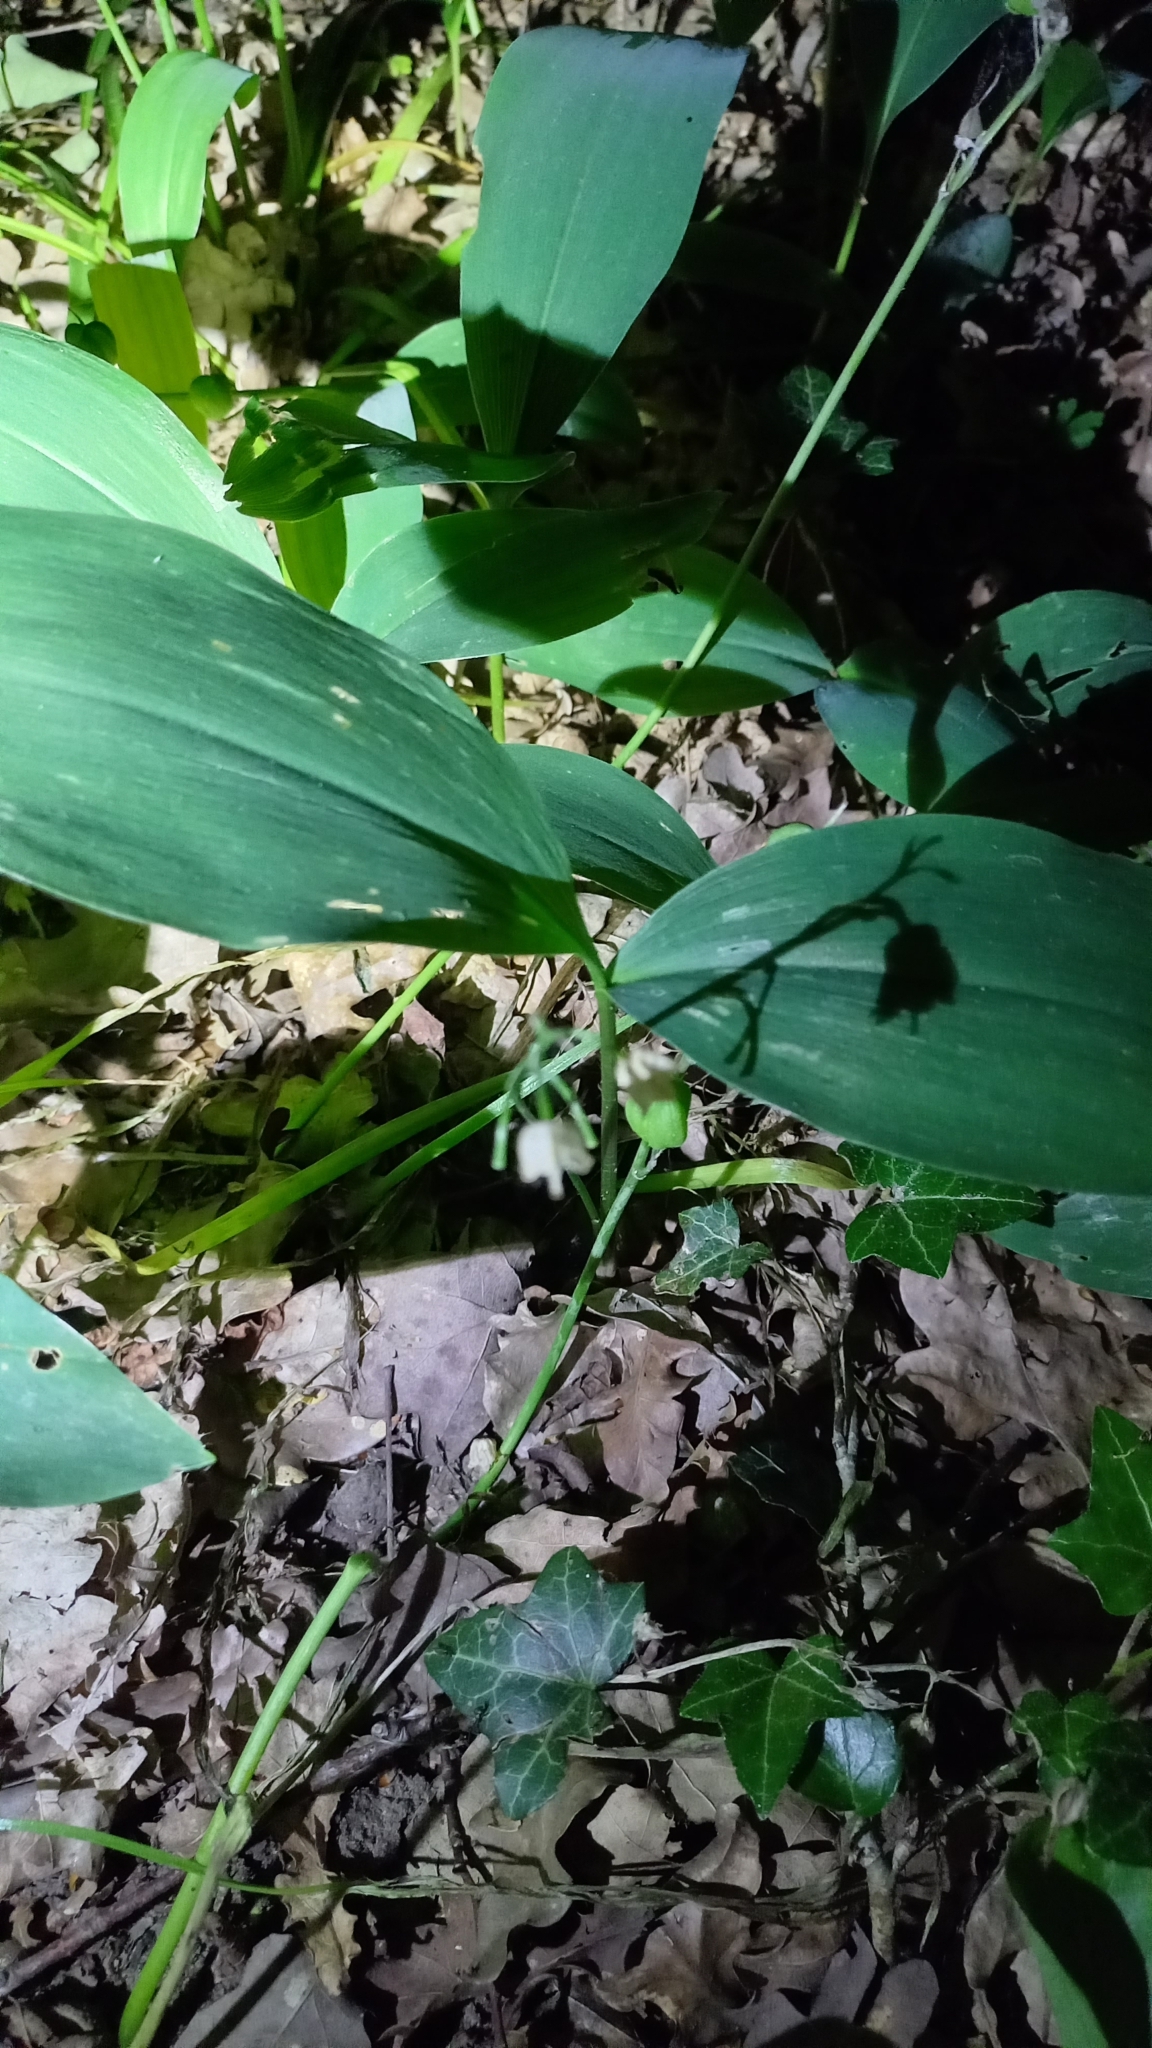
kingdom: Plantae
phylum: Tracheophyta
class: Liliopsida
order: Asparagales
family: Asparagaceae
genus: Convallaria
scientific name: Convallaria majalis
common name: Lily-of-the-valley
